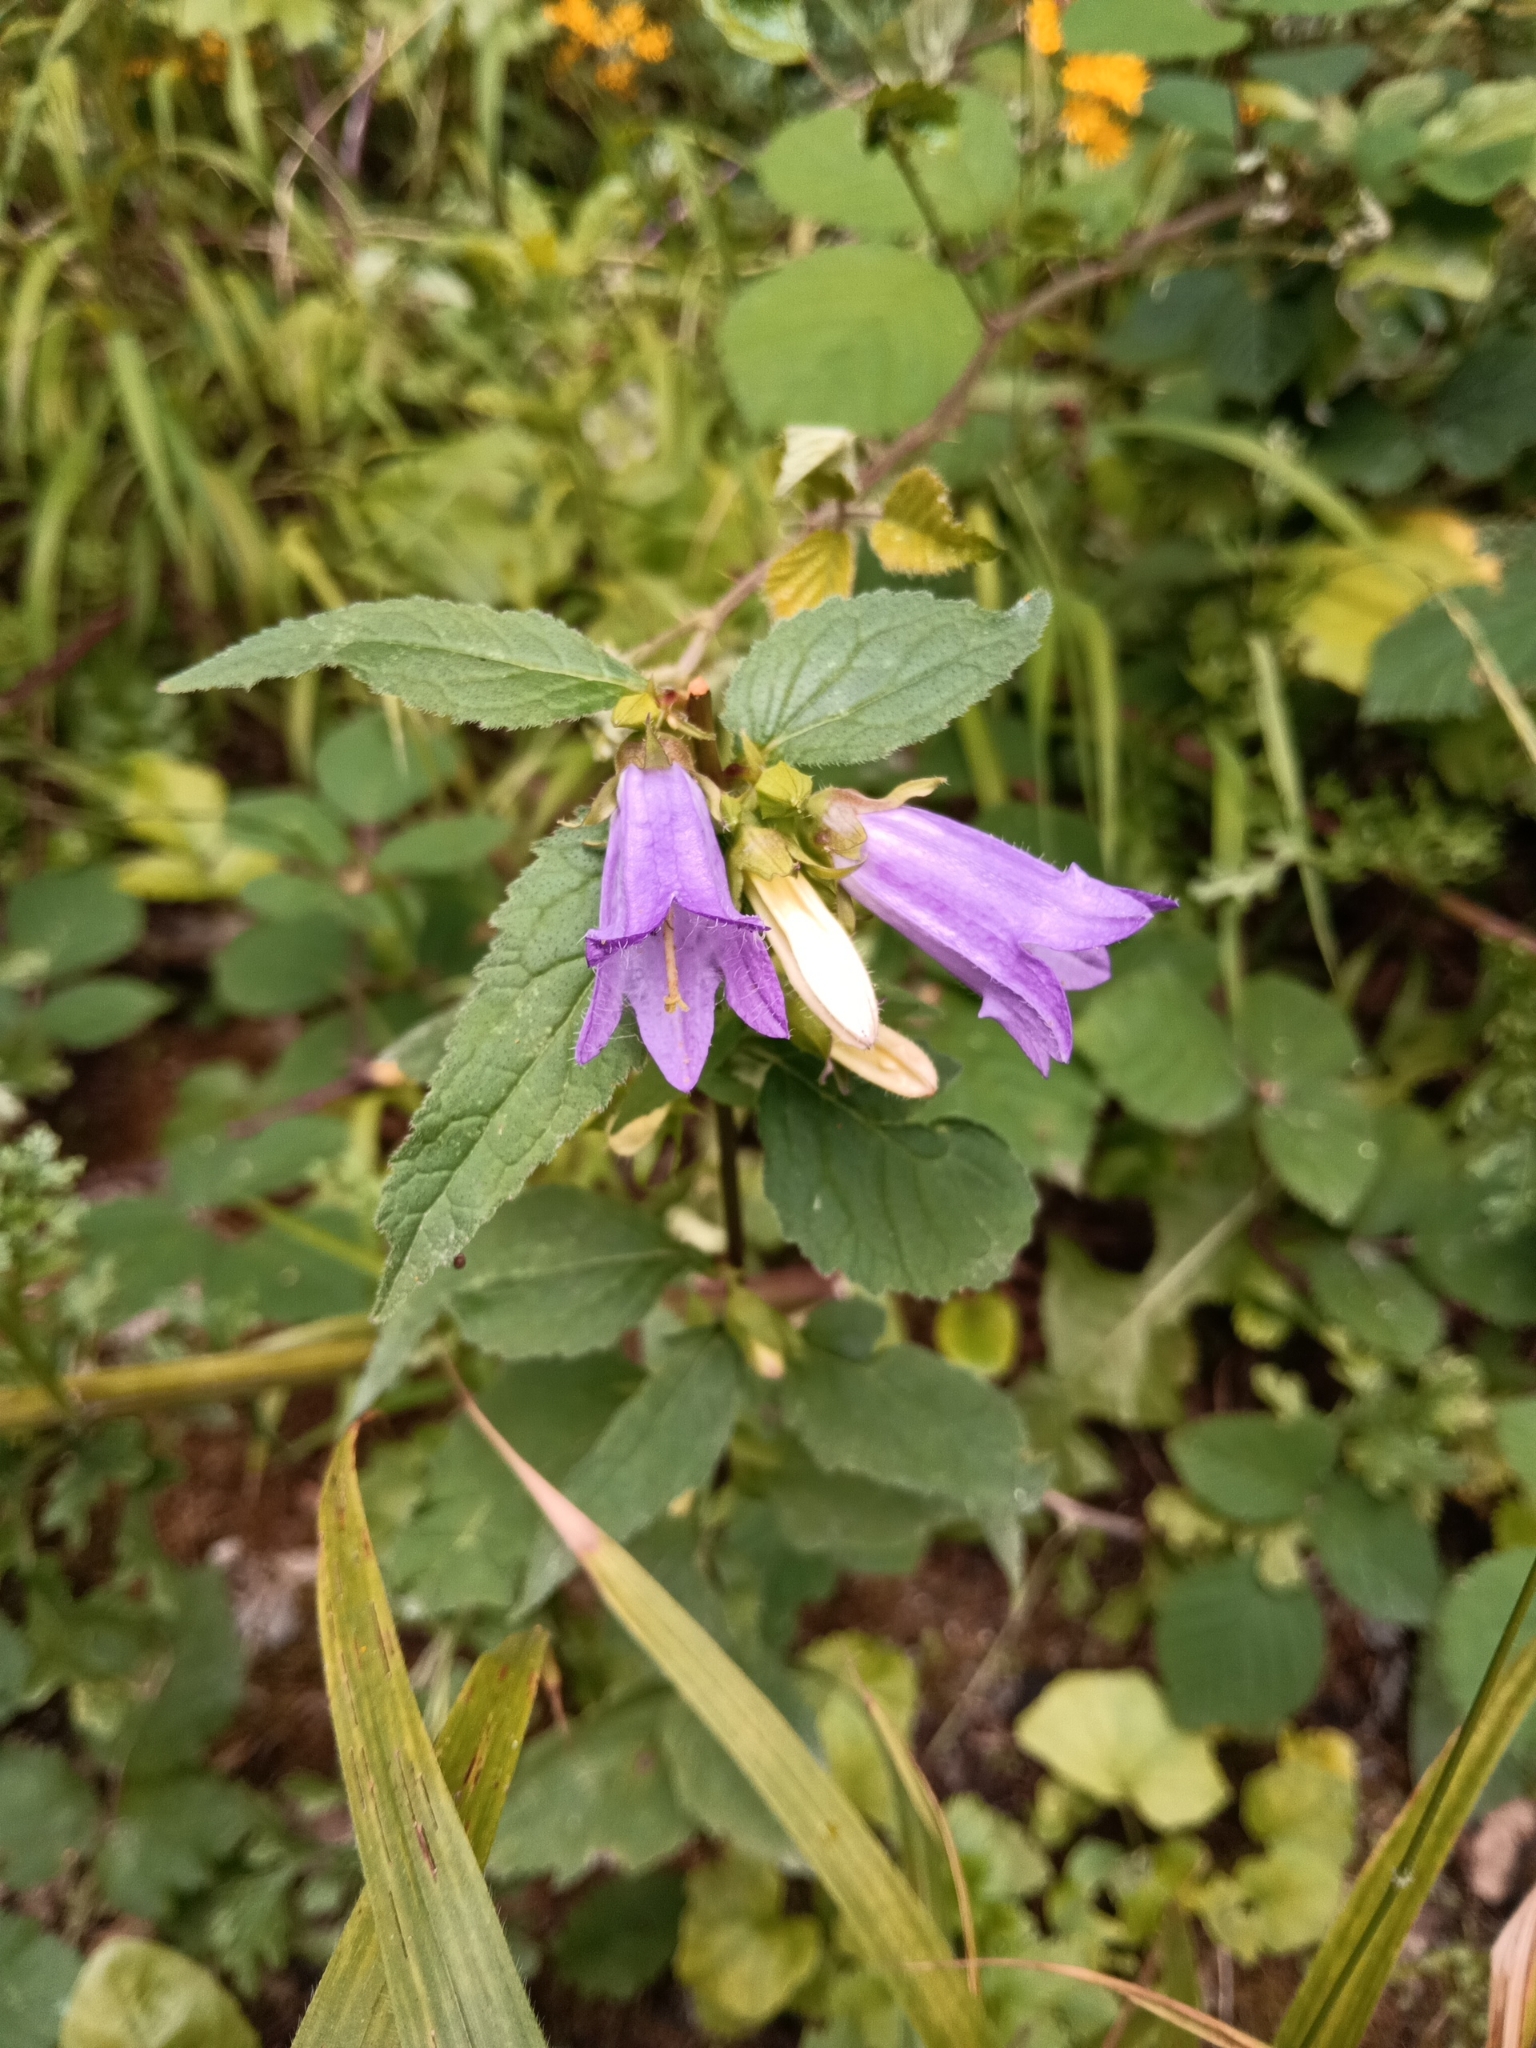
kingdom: Plantae
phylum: Tracheophyta
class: Magnoliopsida
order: Asterales
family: Campanulaceae
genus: Campanula
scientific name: Campanula trachelium
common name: Nettle-leaved bellflower
